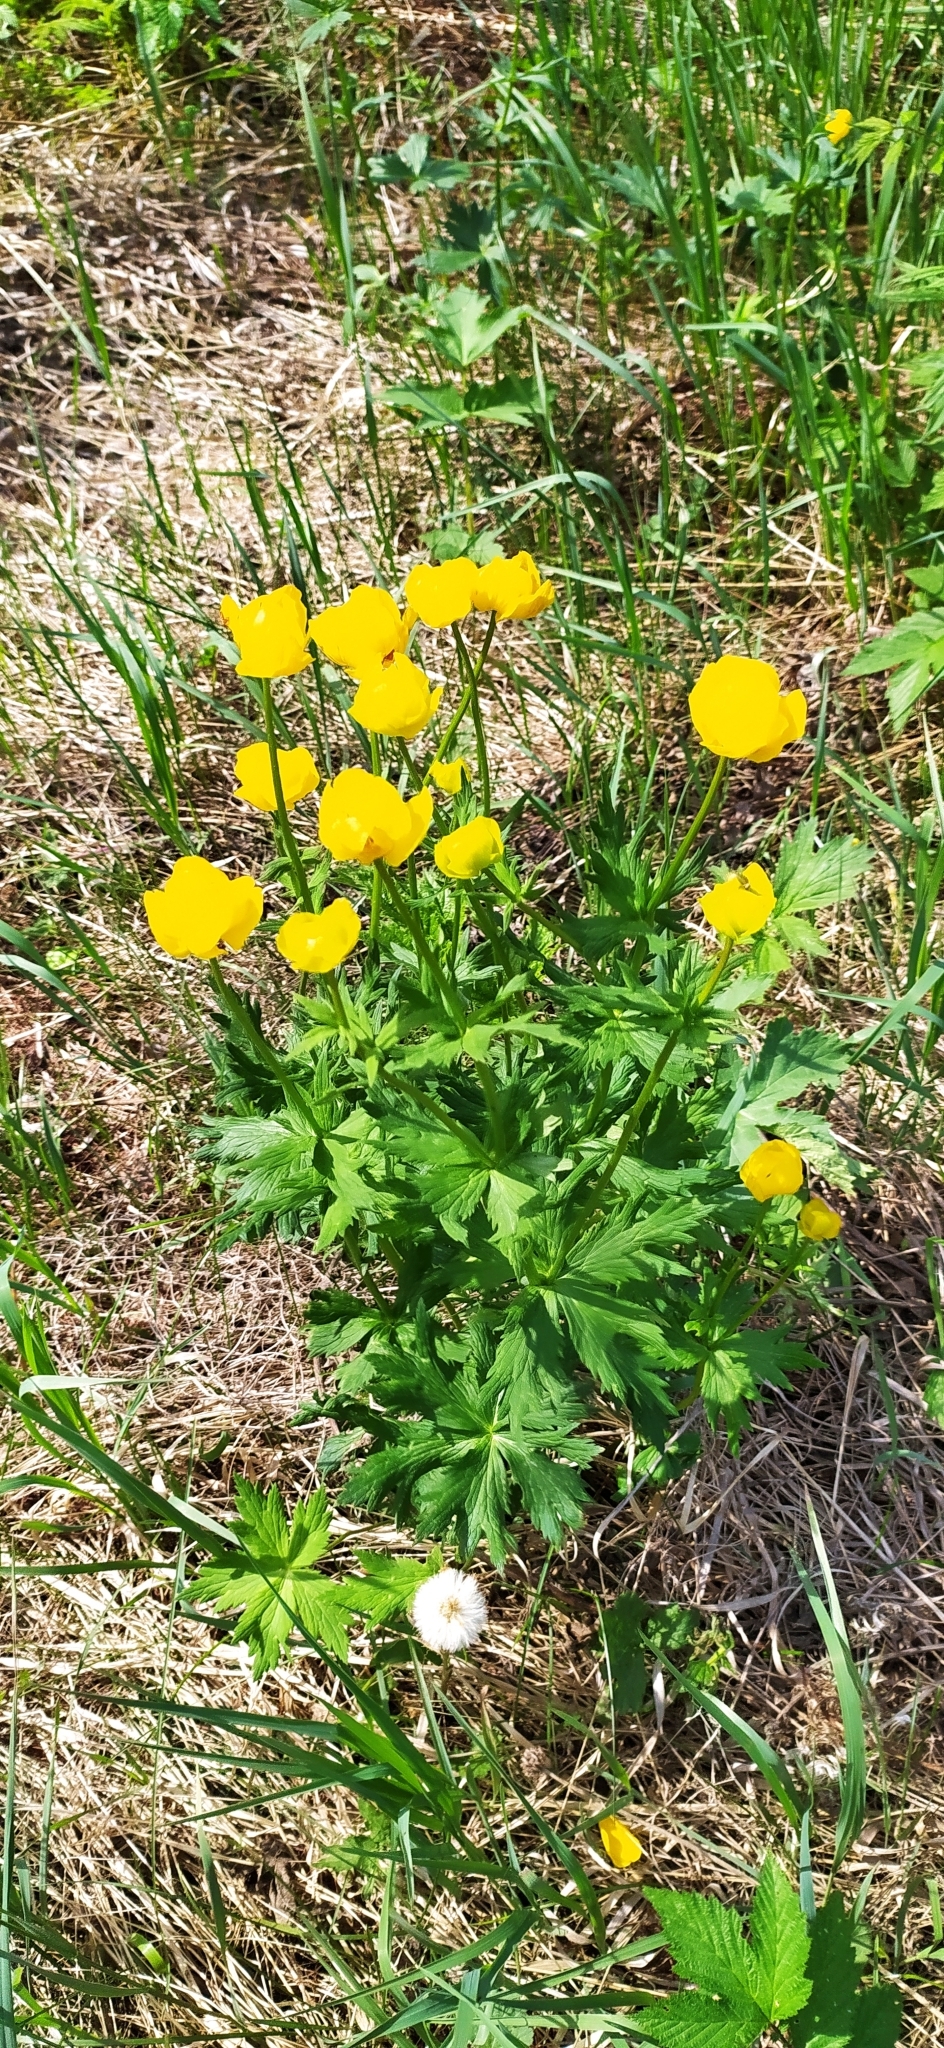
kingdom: Plantae
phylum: Tracheophyta
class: Magnoliopsida
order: Ranunculales
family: Ranunculaceae
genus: Trollius
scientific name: Trollius europaeus
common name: European globeflower
